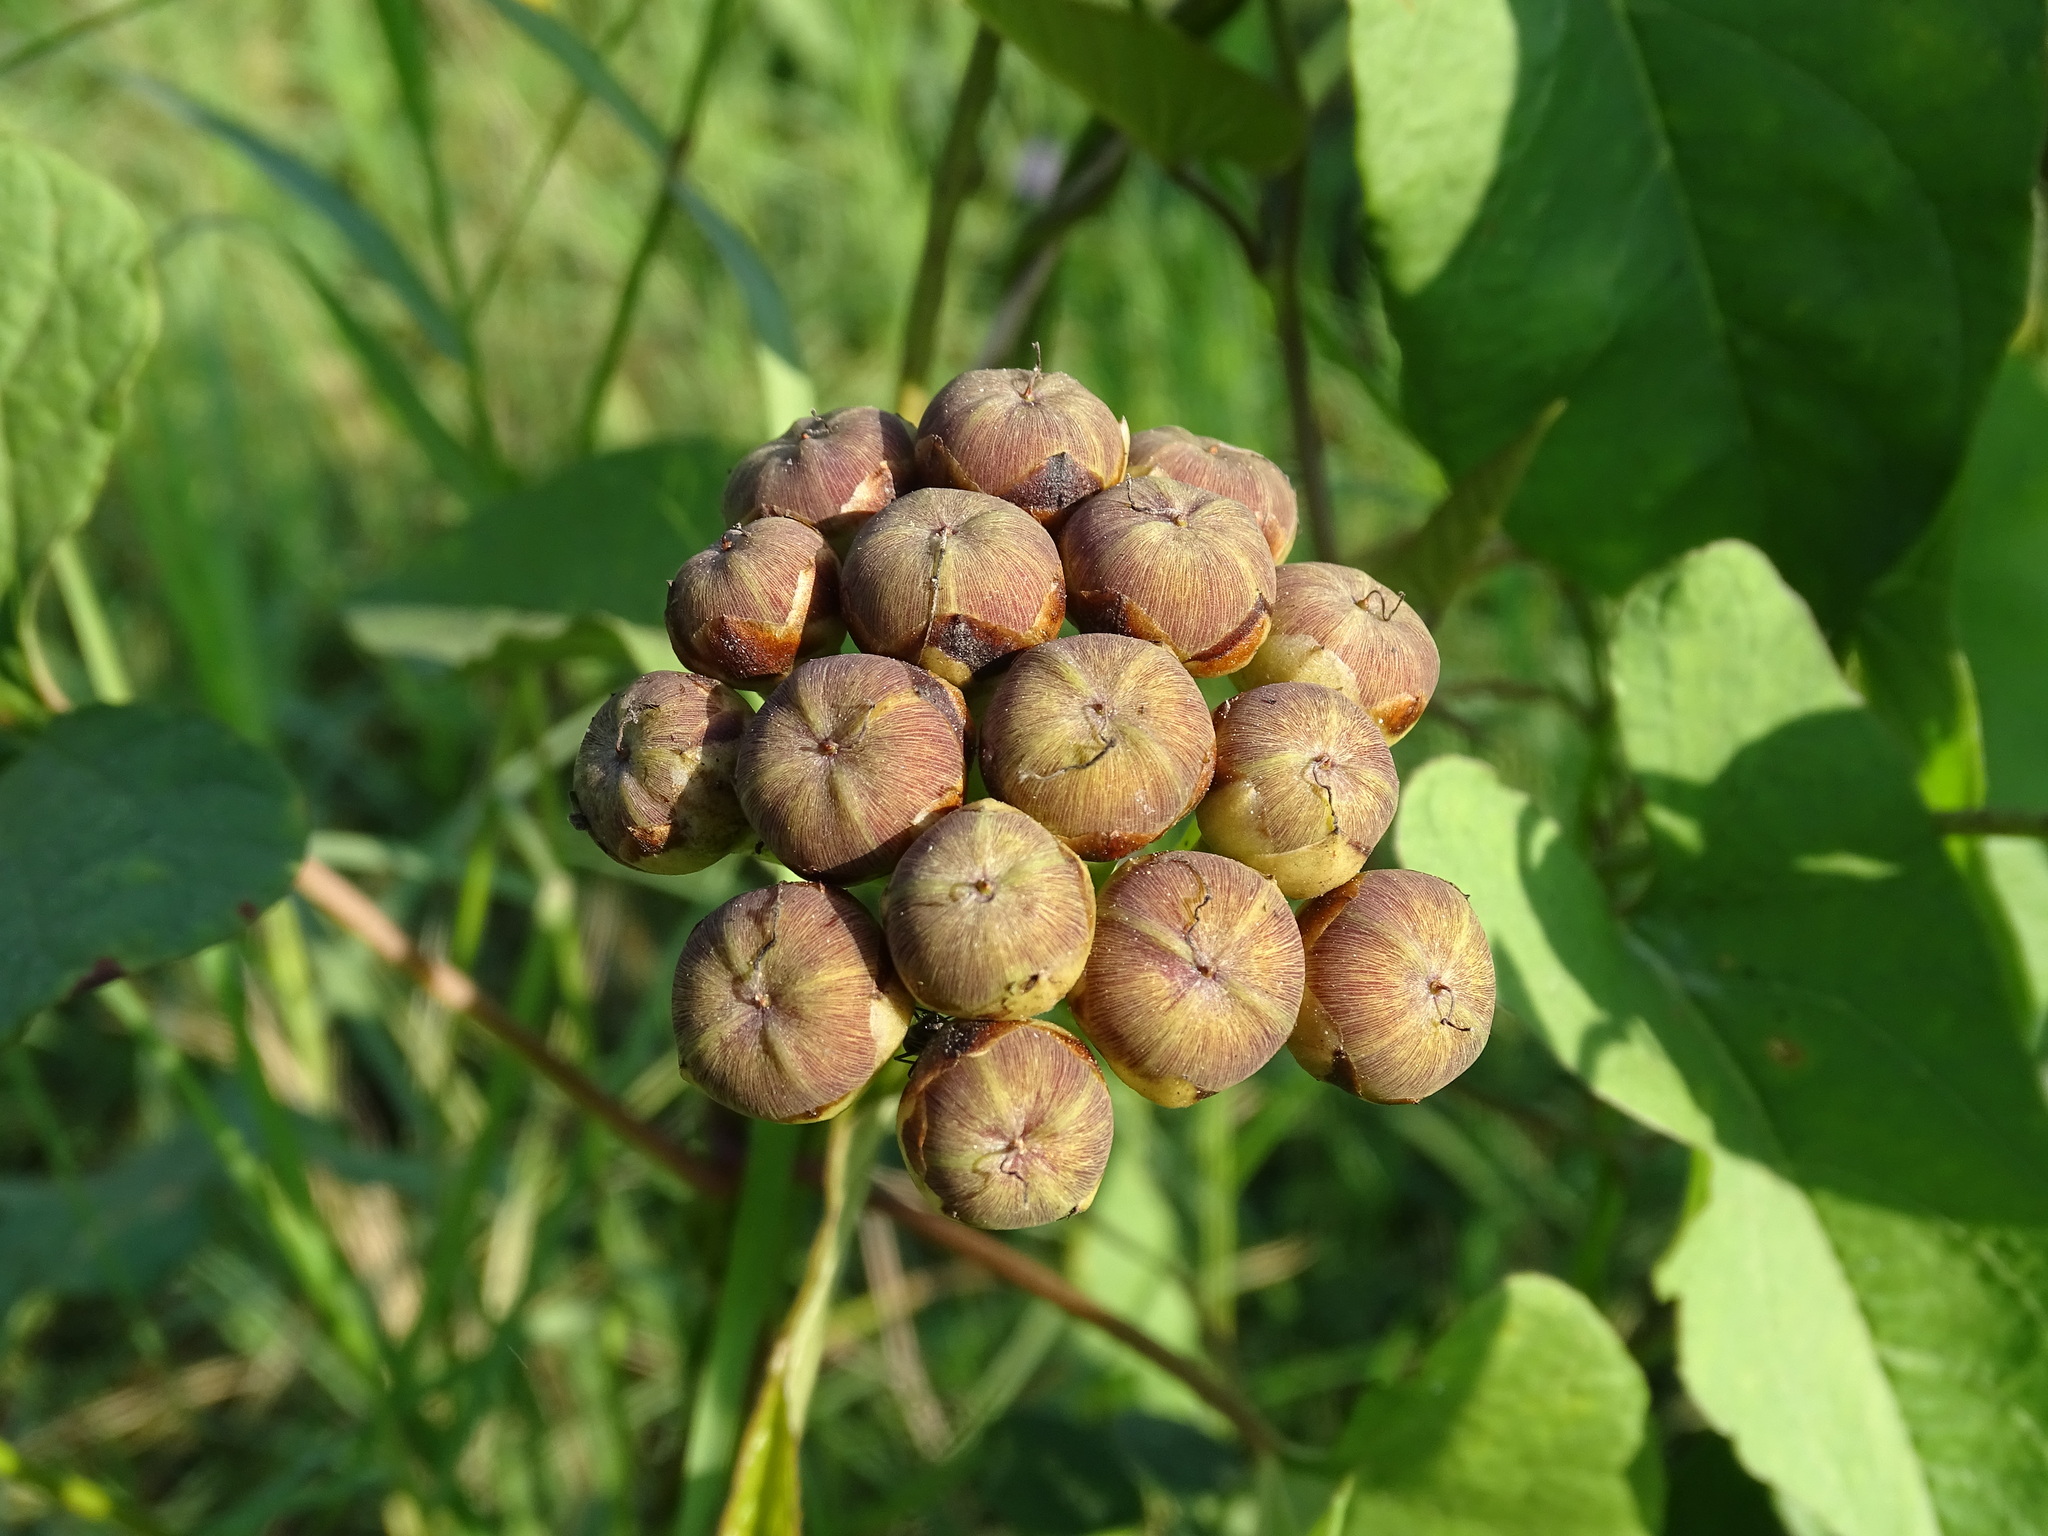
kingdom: Plantae
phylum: Tracheophyta
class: Magnoliopsida
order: Solanales
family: Convolvulaceae
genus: Camonea
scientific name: Camonea umbellata
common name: Hogvine
